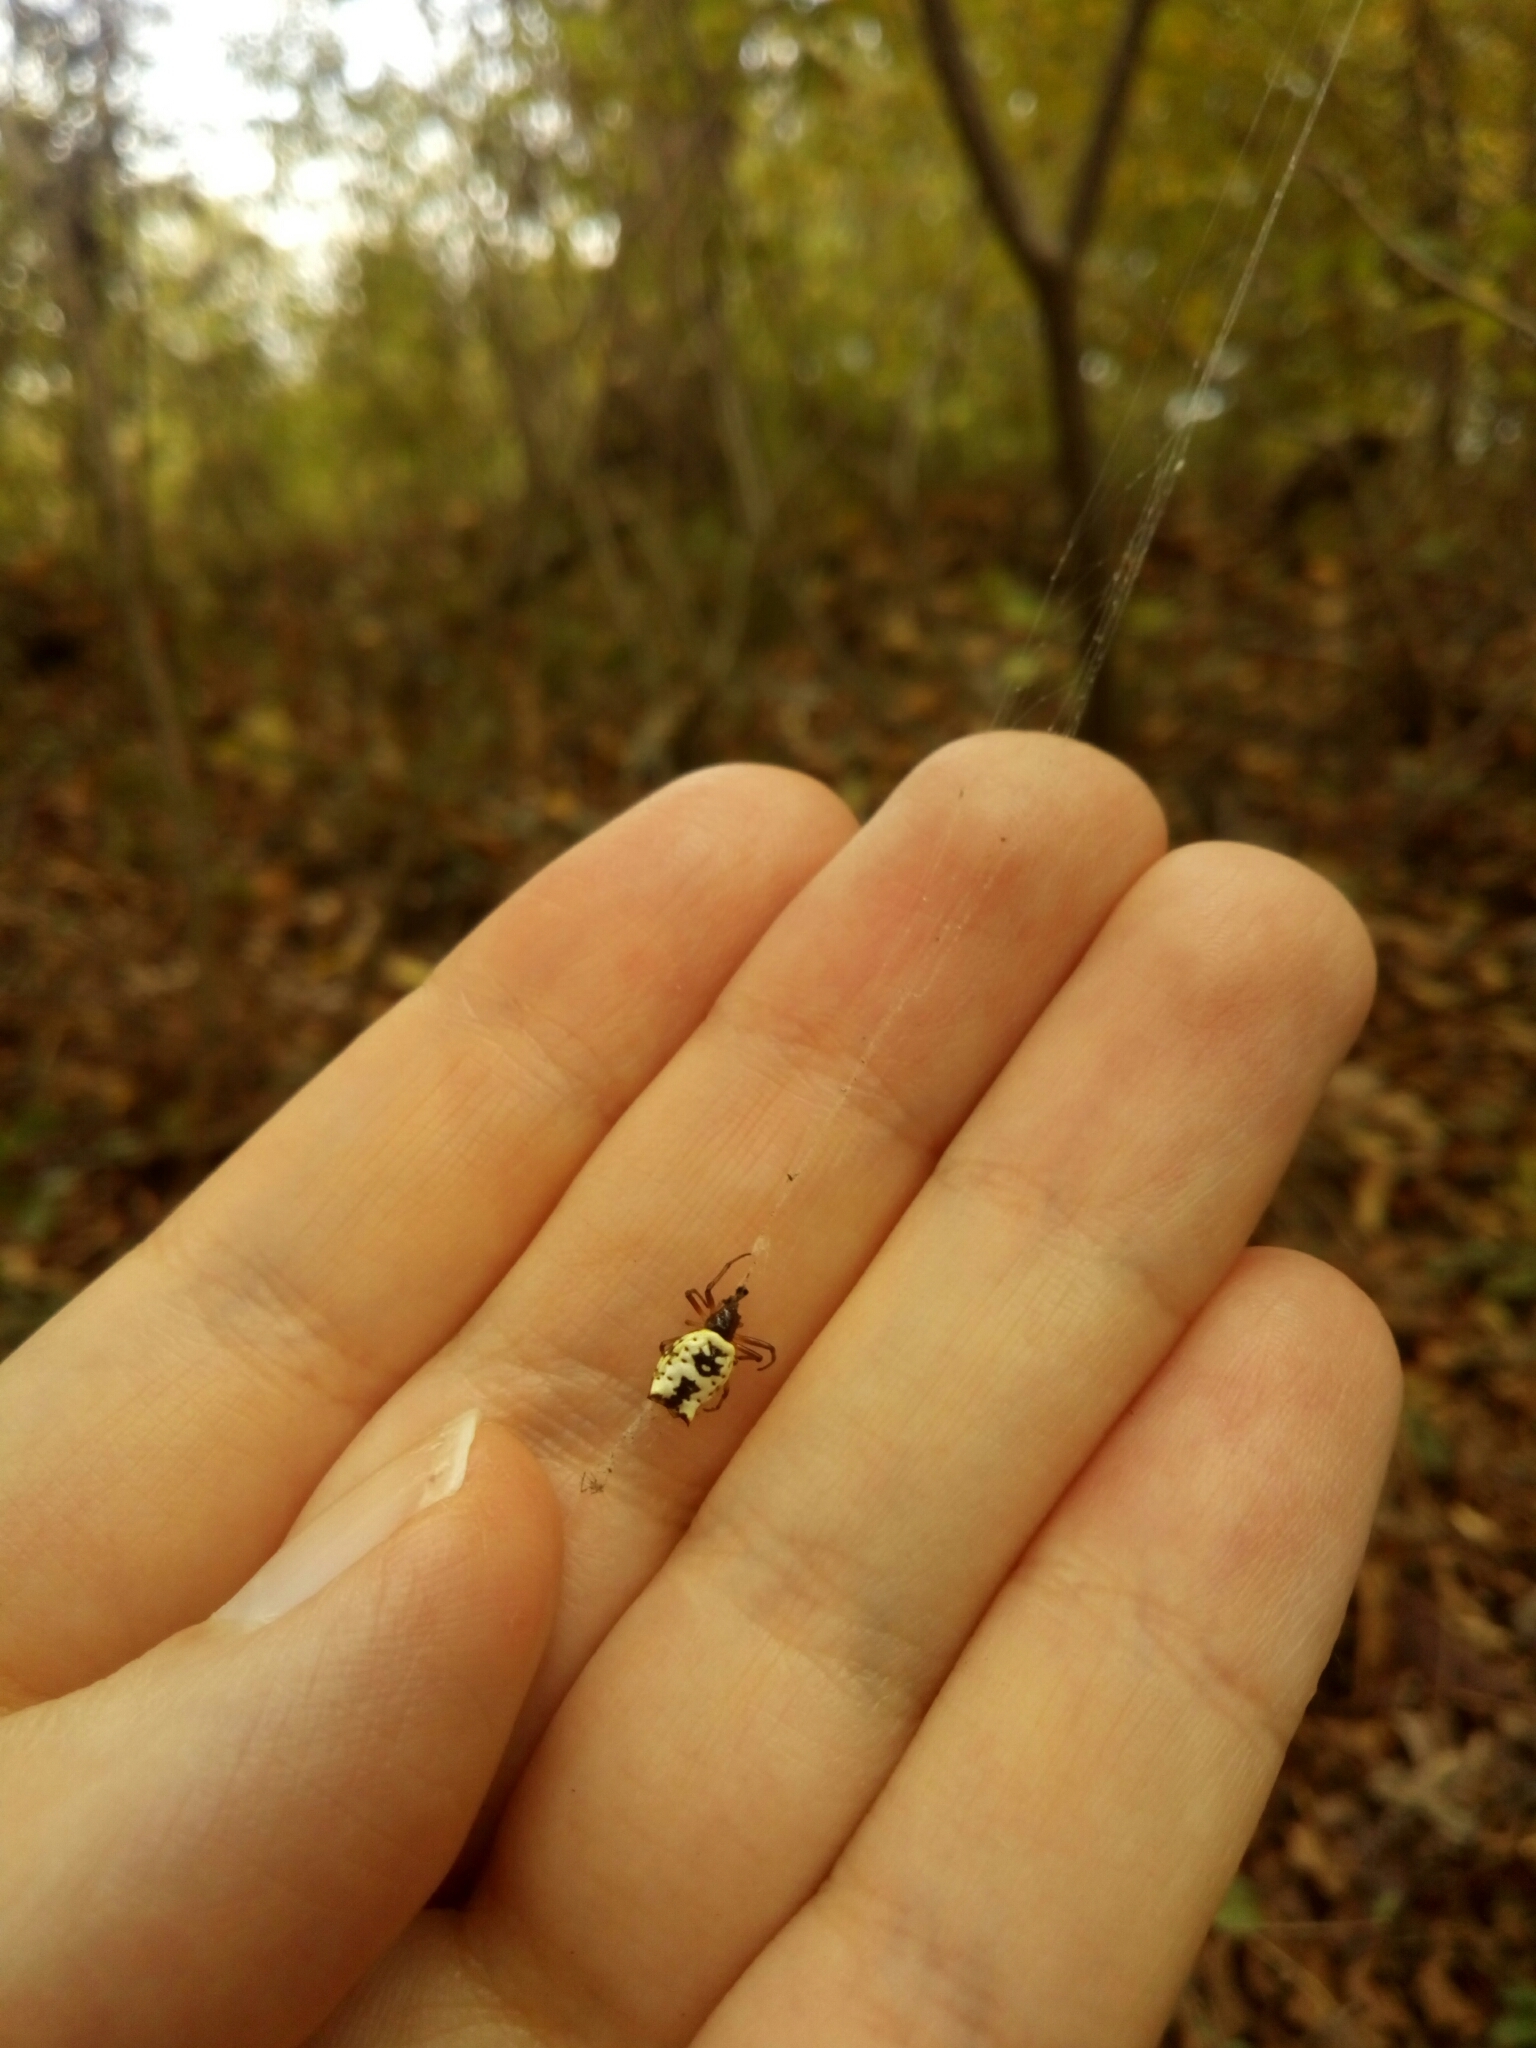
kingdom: Animalia
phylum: Arthropoda
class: Arachnida
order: Araneae
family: Araneidae
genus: Micrathena
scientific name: Micrathena mitrata
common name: Orb weavers
